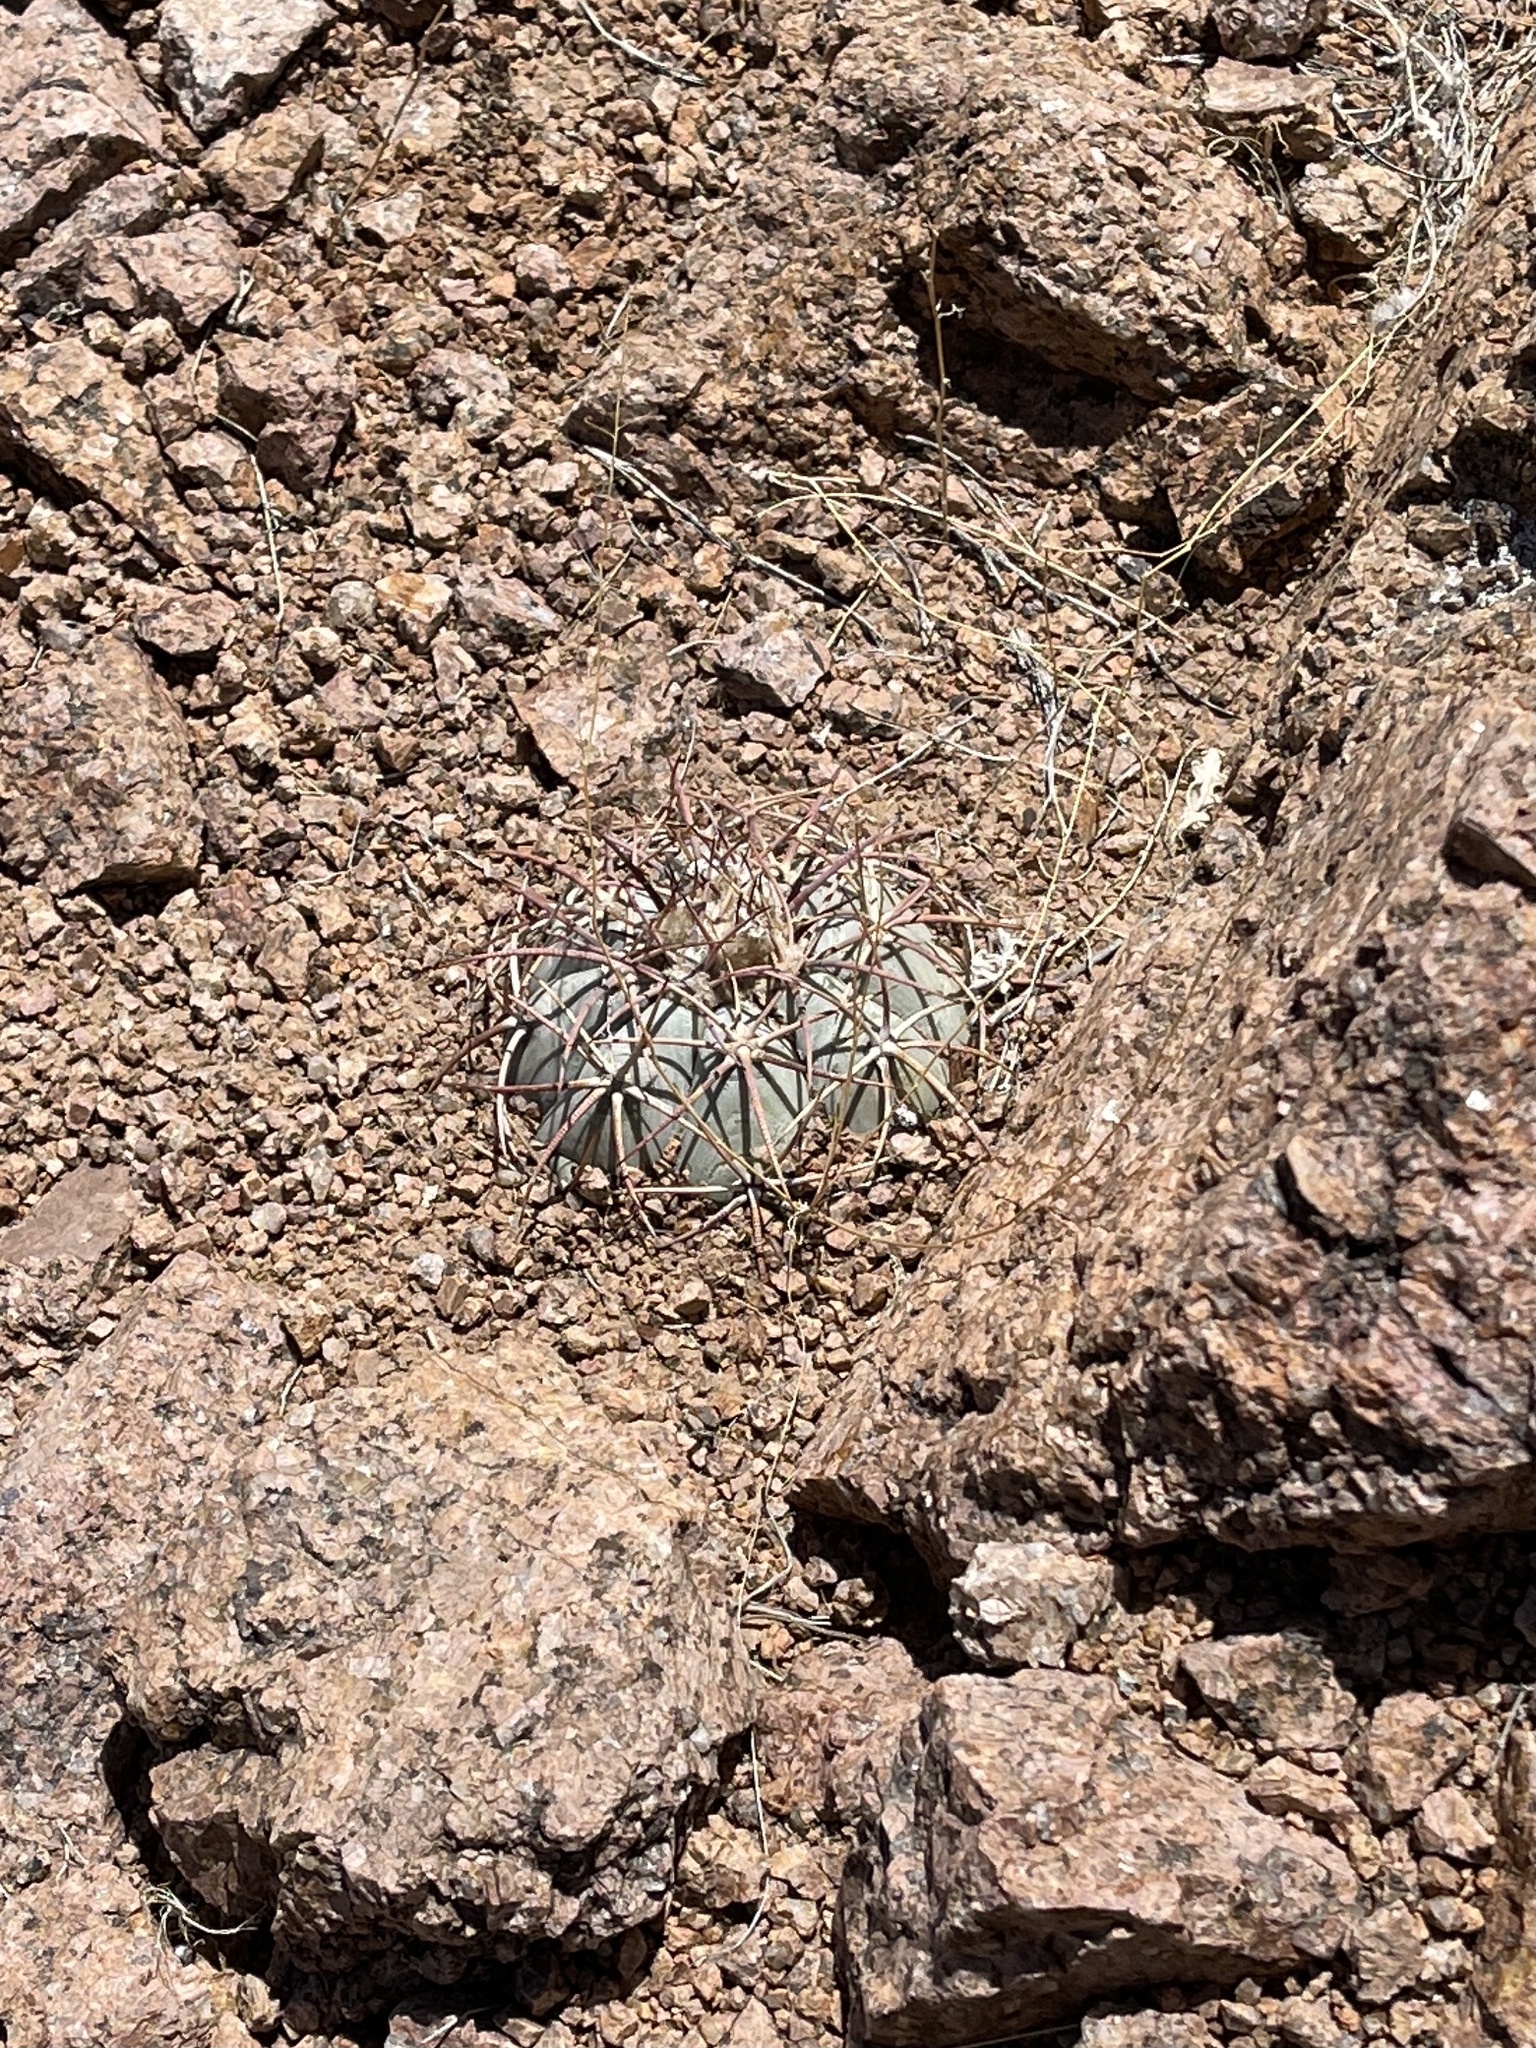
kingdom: Plantae
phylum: Tracheophyta
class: Magnoliopsida
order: Caryophyllales
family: Cactaceae
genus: Echinocactus
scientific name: Echinocactus horizonthalonius
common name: Devilshead
